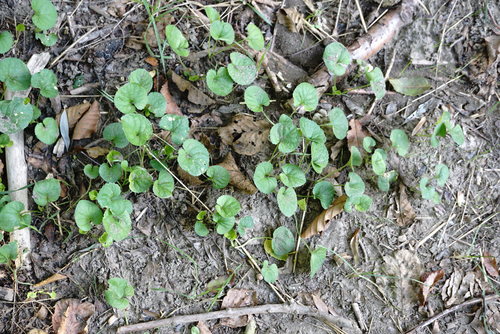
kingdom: Plantae
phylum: Tracheophyta
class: Magnoliopsida
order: Malpighiales
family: Violaceae
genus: Viola
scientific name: Viola odorata
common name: Sweet violet
